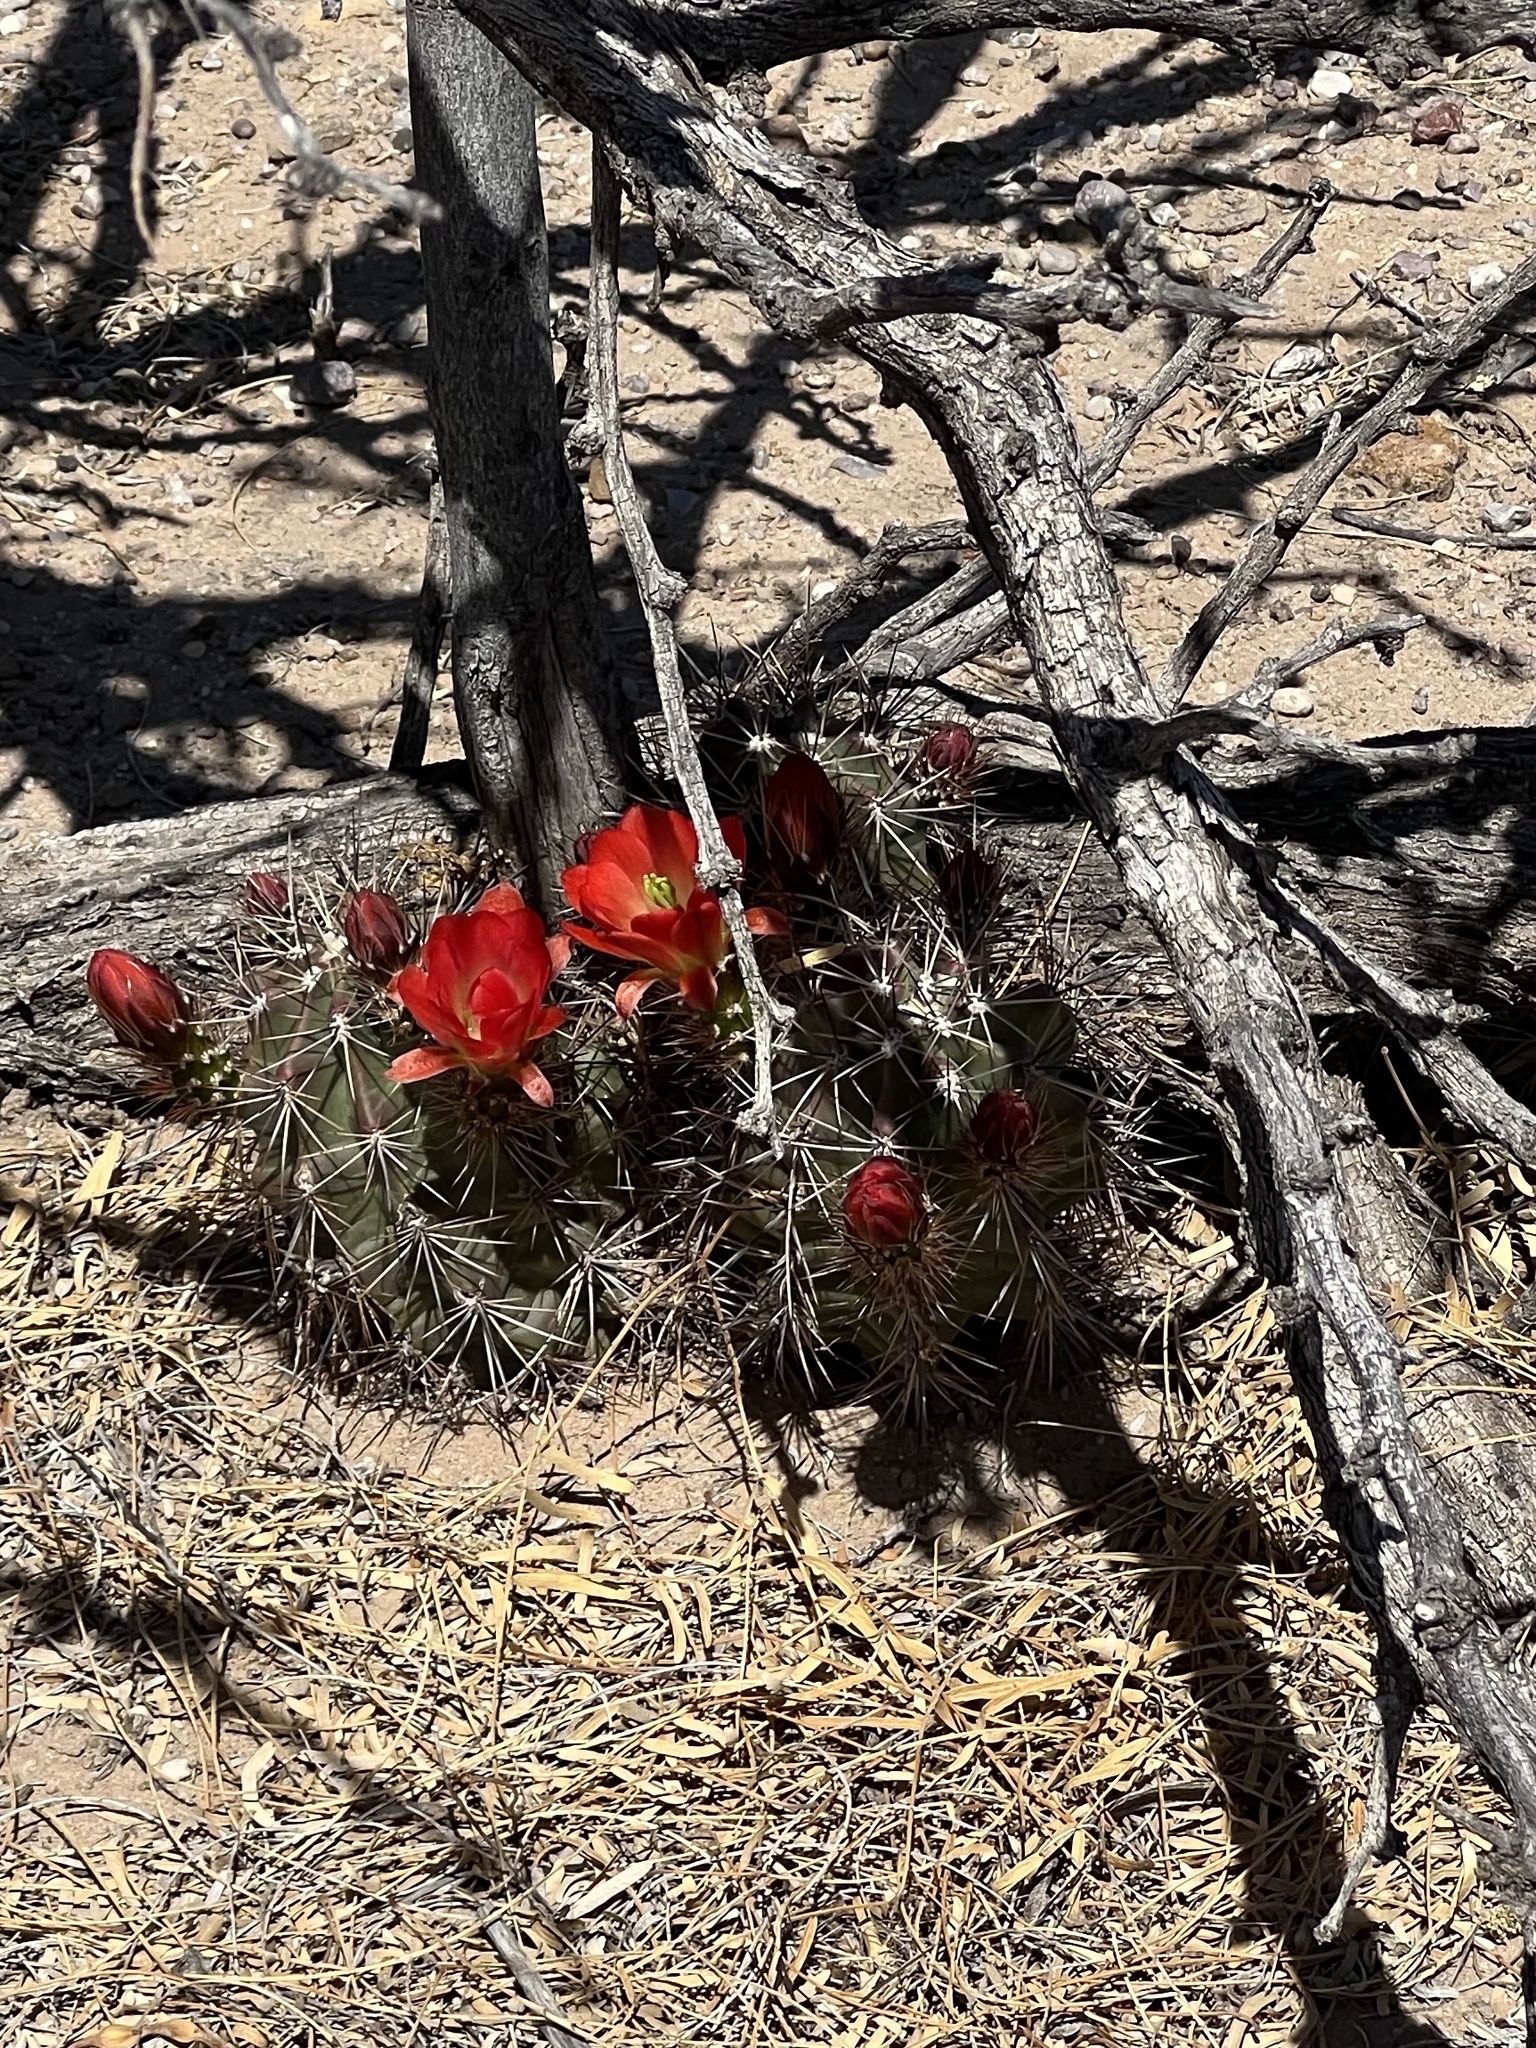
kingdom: Plantae
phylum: Tracheophyta
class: Magnoliopsida
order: Caryophyllales
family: Cactaceae
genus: Echinocereus
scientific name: Echinocereus coccineus
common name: Scarlet hedgehog cactus
